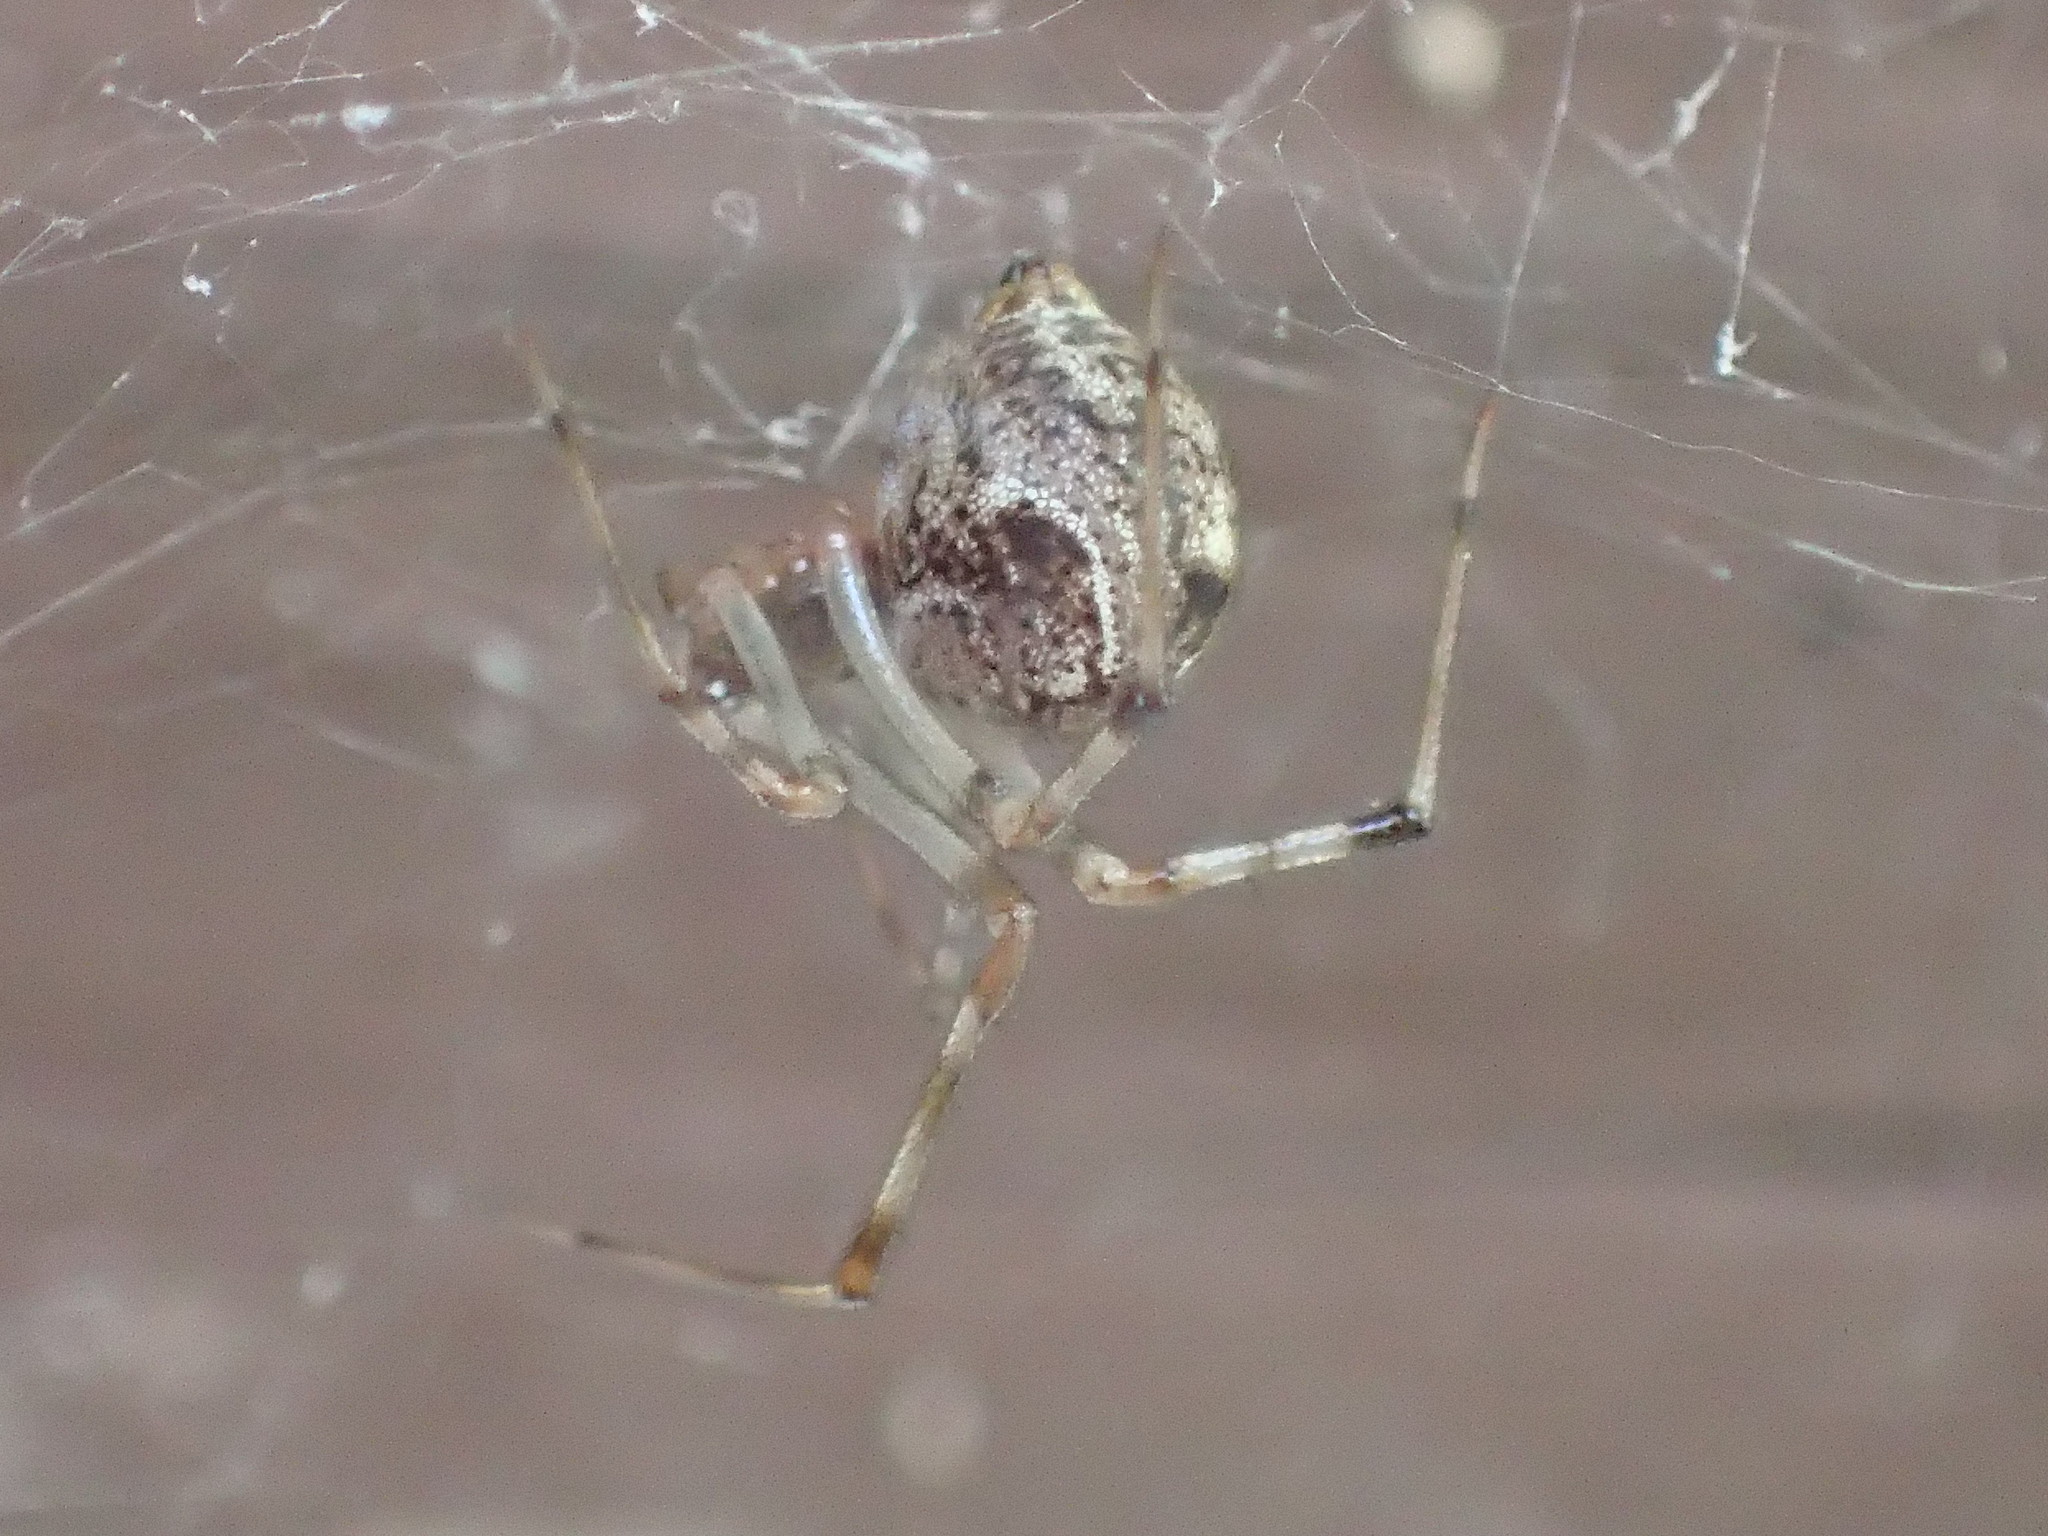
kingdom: Animalia
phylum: Arthropoda
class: Arachnida
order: Araneae
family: Theridiidae
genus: Parasteatoda
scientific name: Parasteatoda tepidariorum
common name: Common house spider
